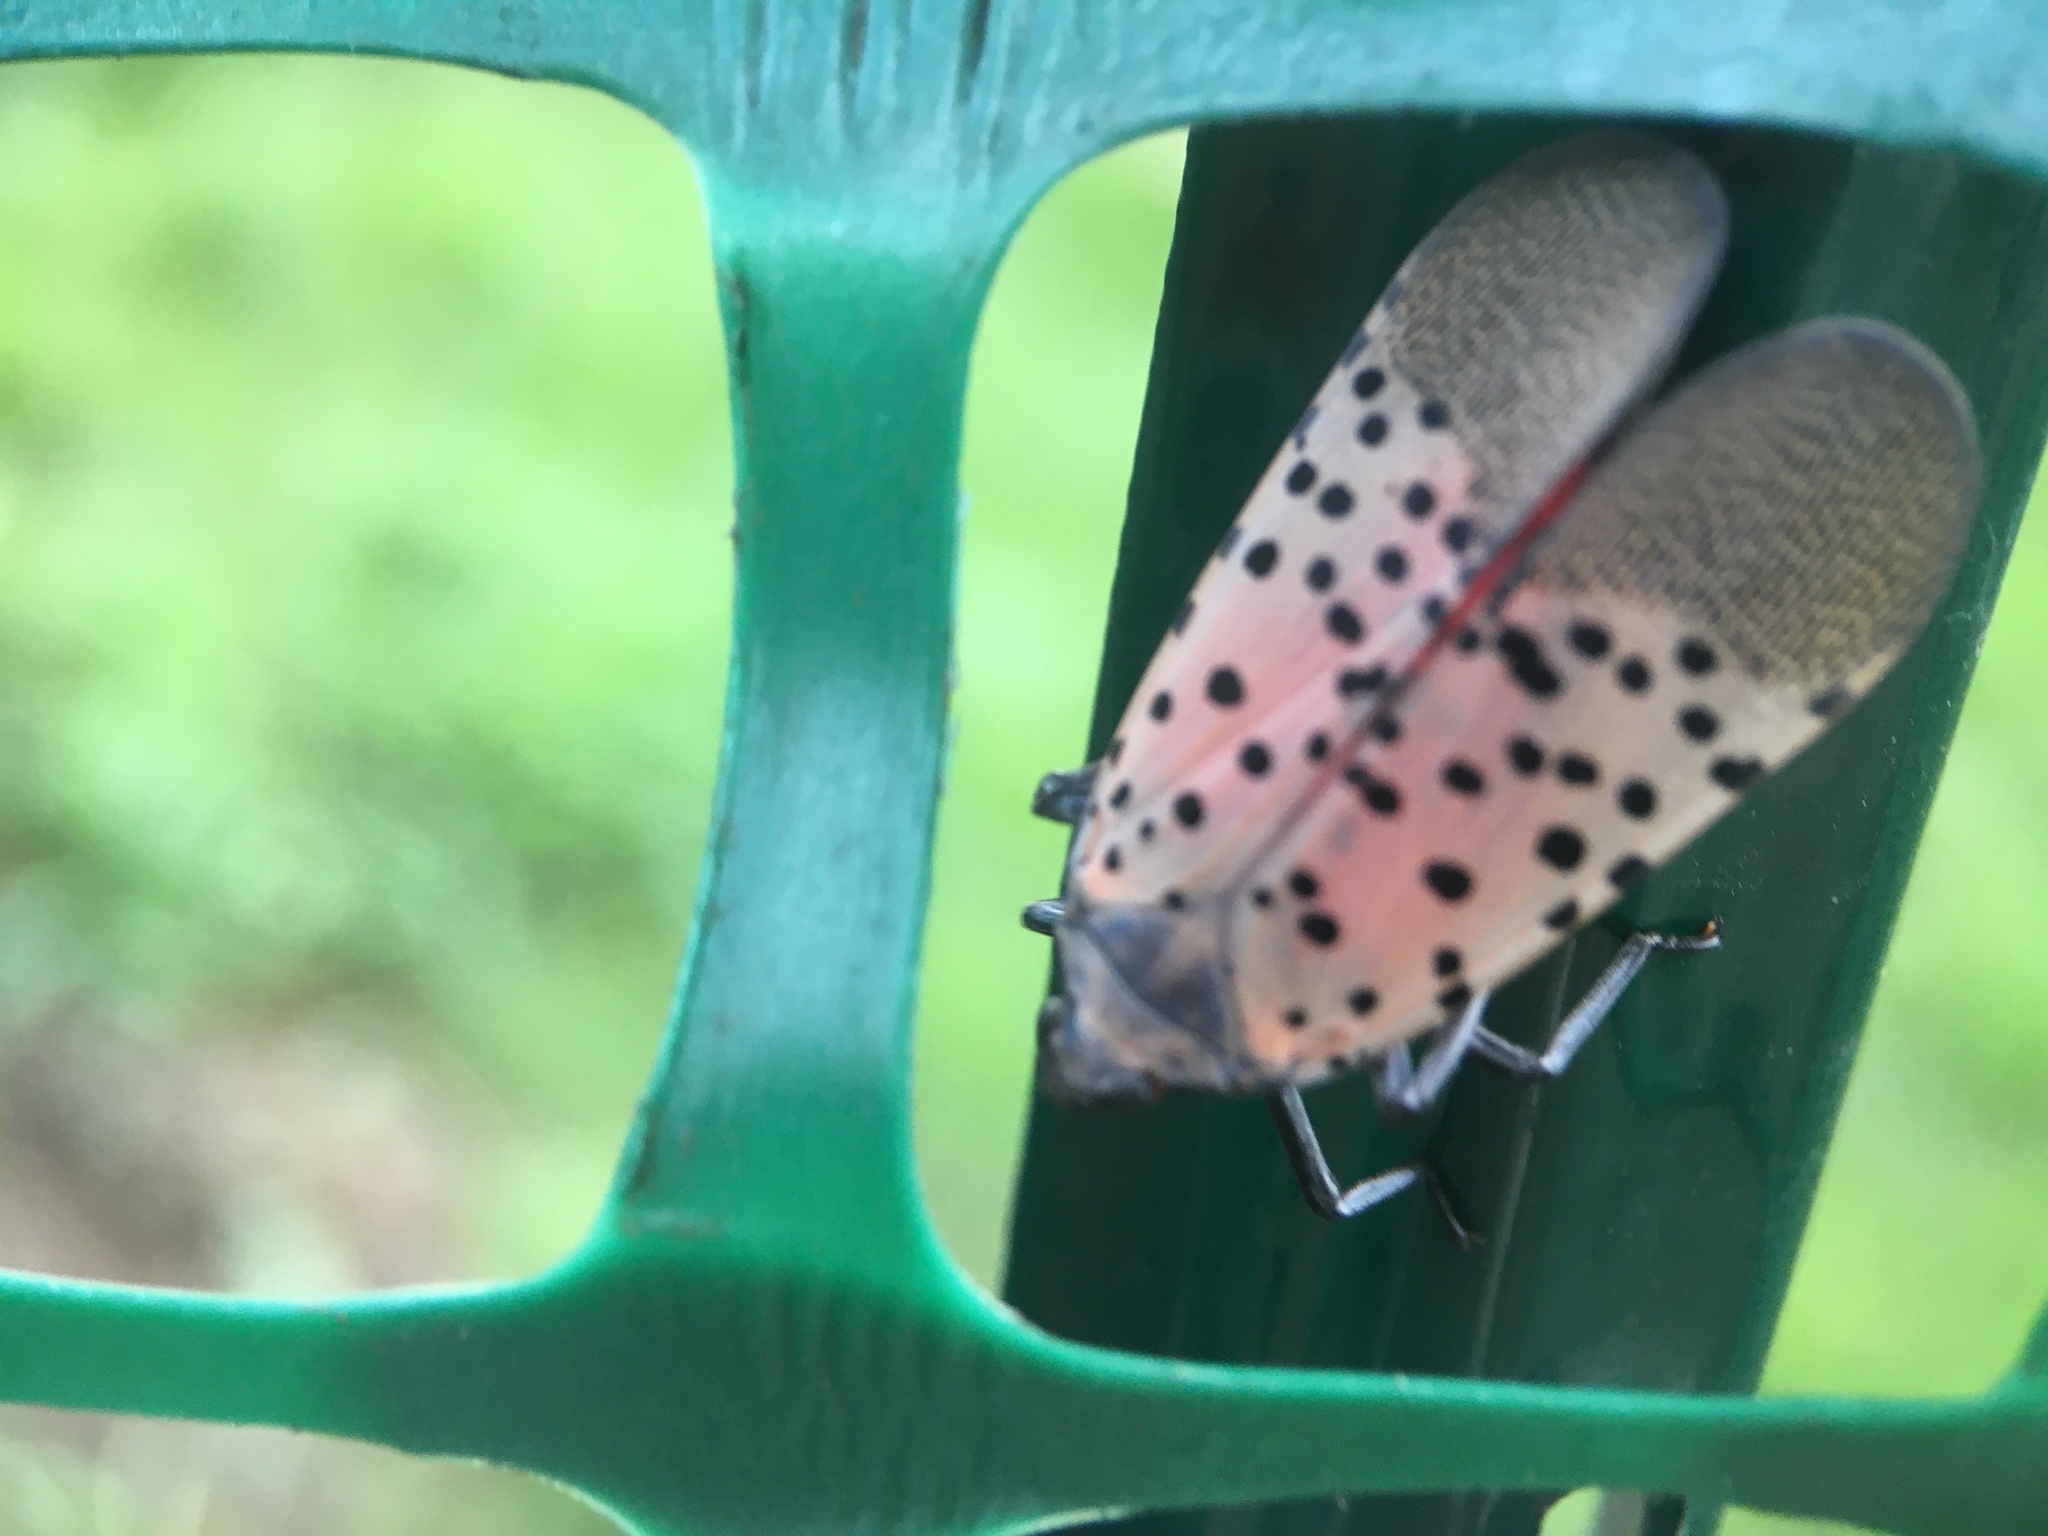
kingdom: Animalia
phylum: Arthropoda
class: Insecta
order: Hemiptera
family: Fulgoridae
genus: Lycorma
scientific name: Lycorma delicatula
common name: Spotted lanternfly
